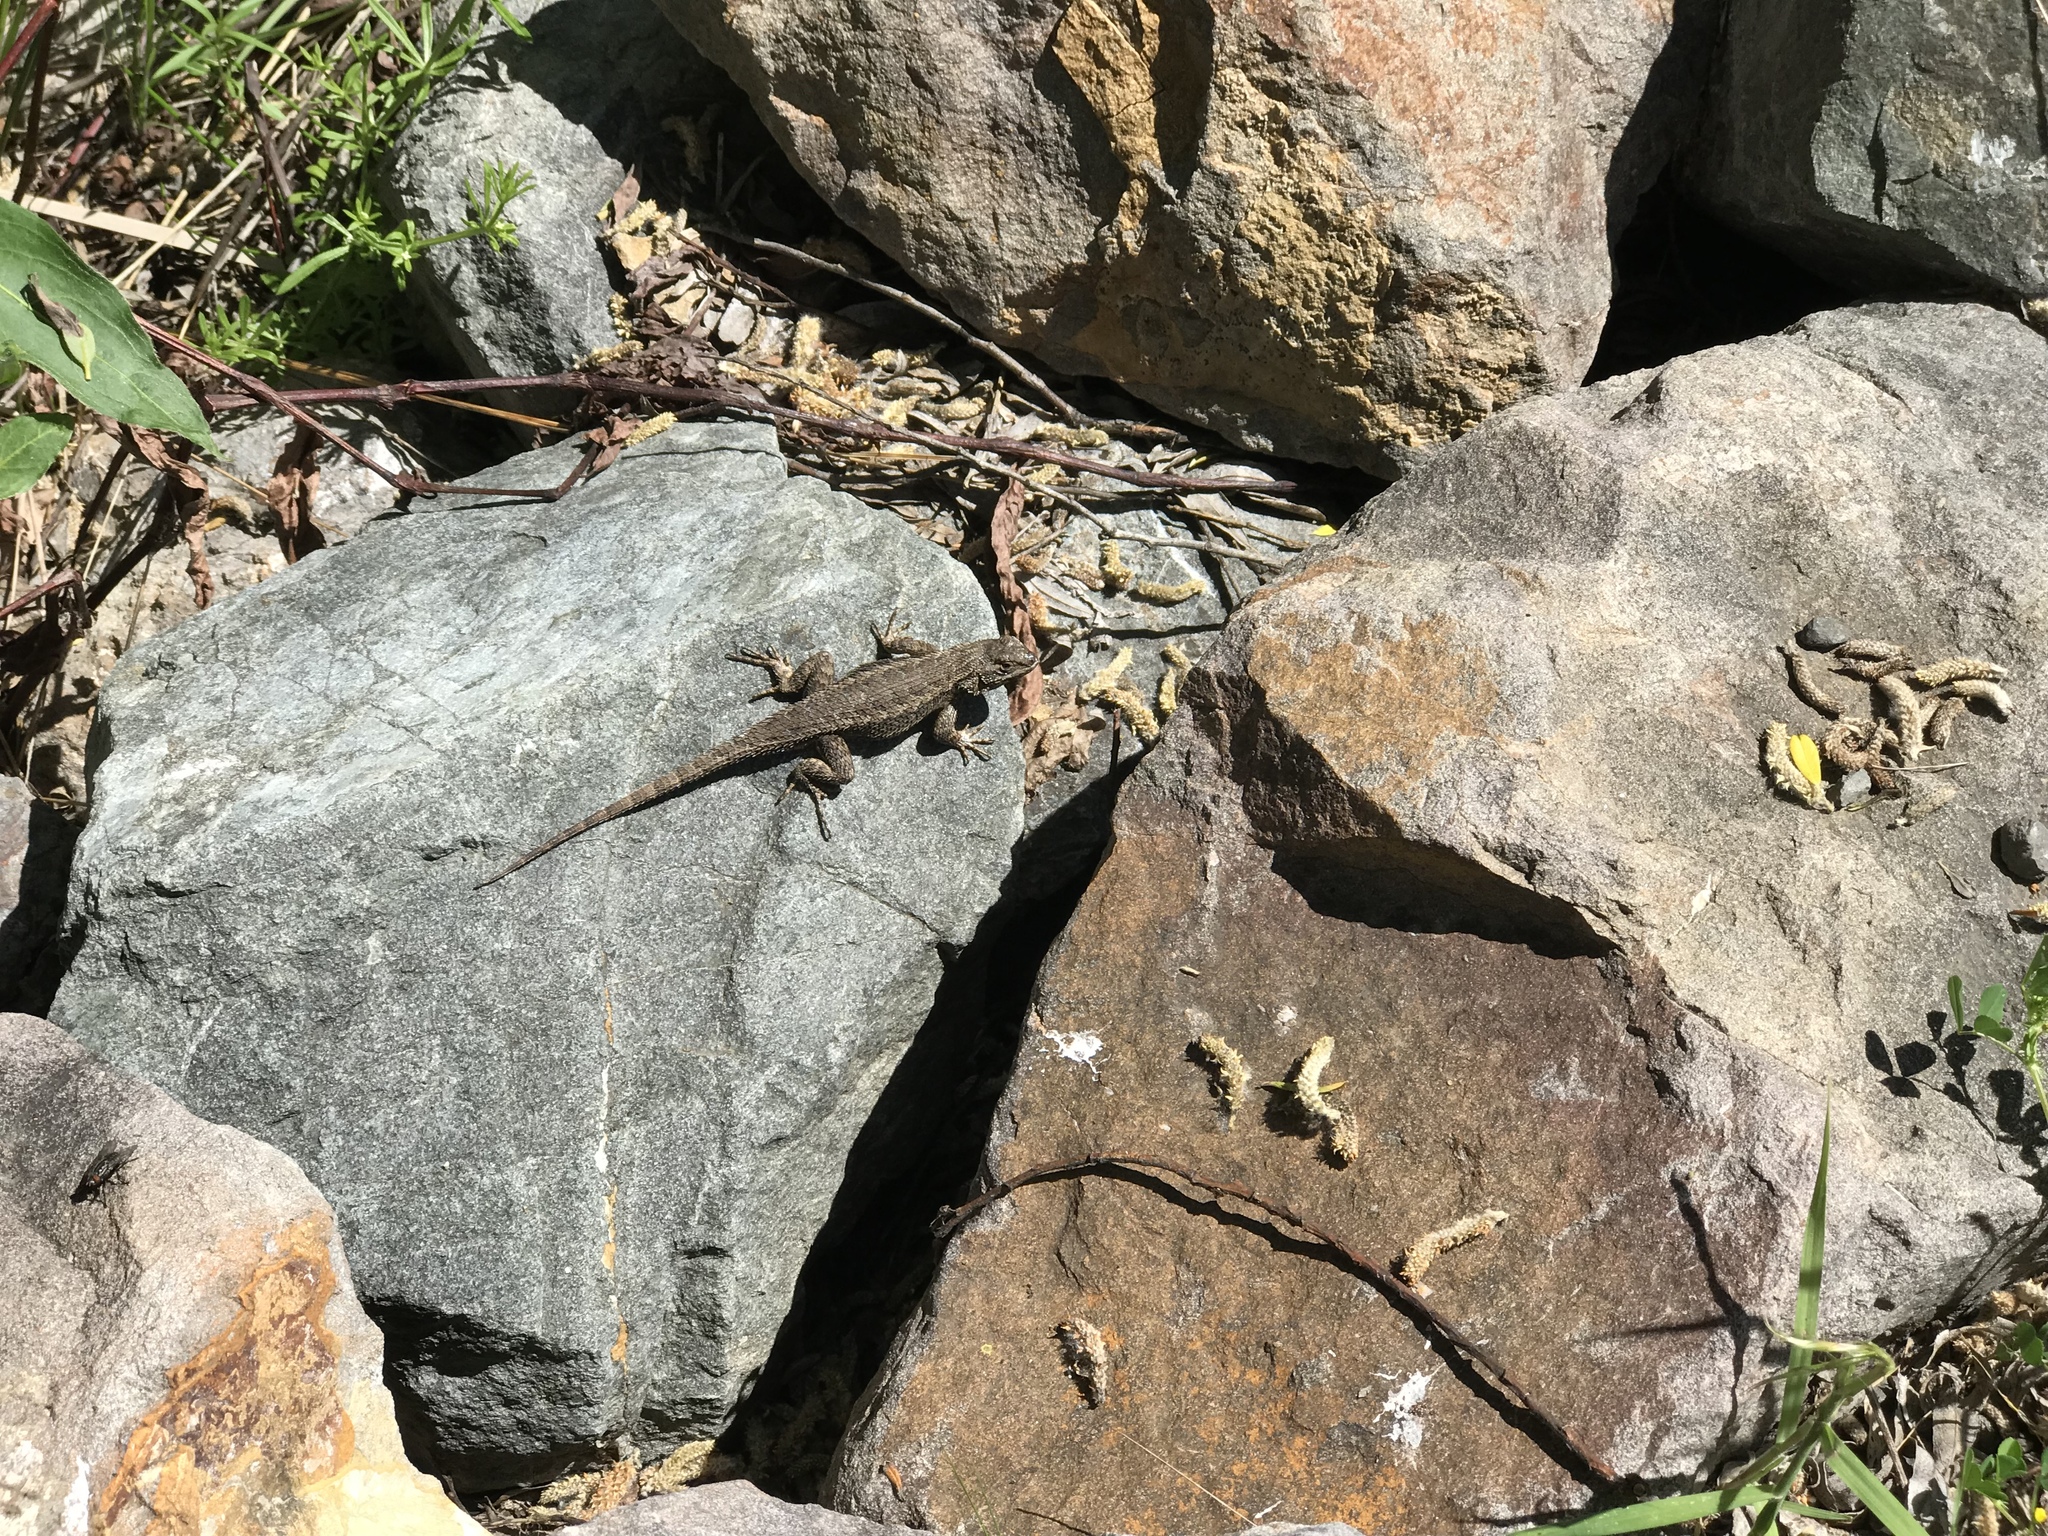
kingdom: Animalia
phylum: Chordata
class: Squamata
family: Phrynosomatidae
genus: Sceloporus
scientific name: Sceloporus occidentalis
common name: Western fence lizard
